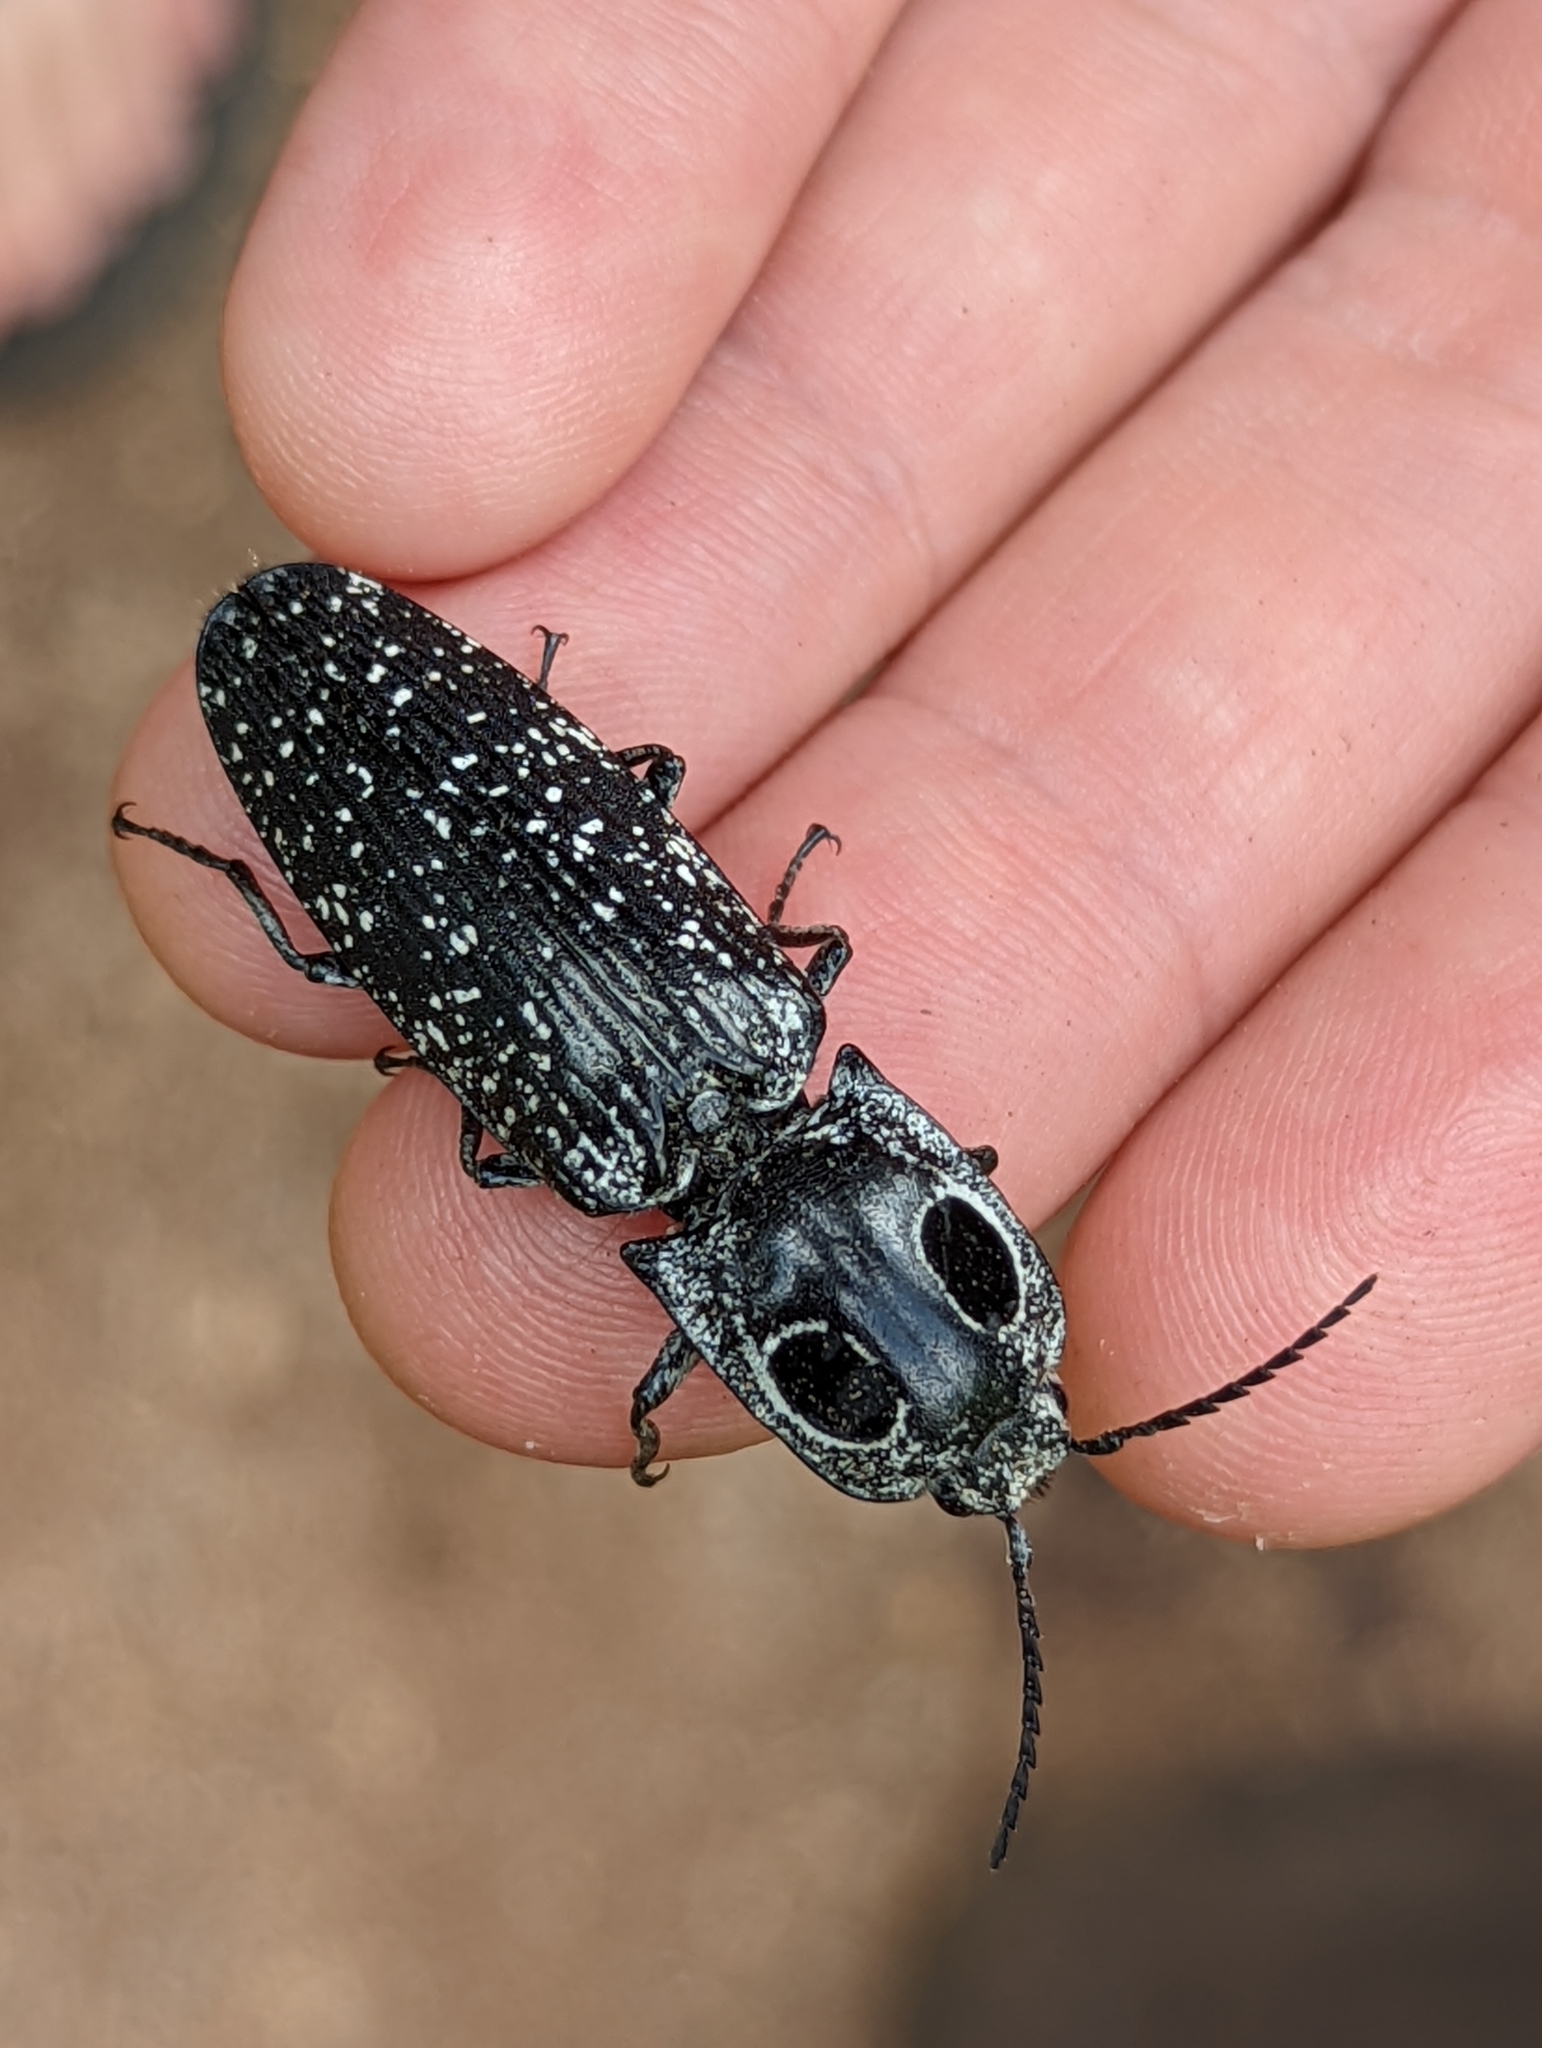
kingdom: Animalia
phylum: Arthropoda
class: Insecta
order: Coleoptera
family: Elateridae
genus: Alaus
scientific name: Alaus oculatus
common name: Eastern eyed click beetle
